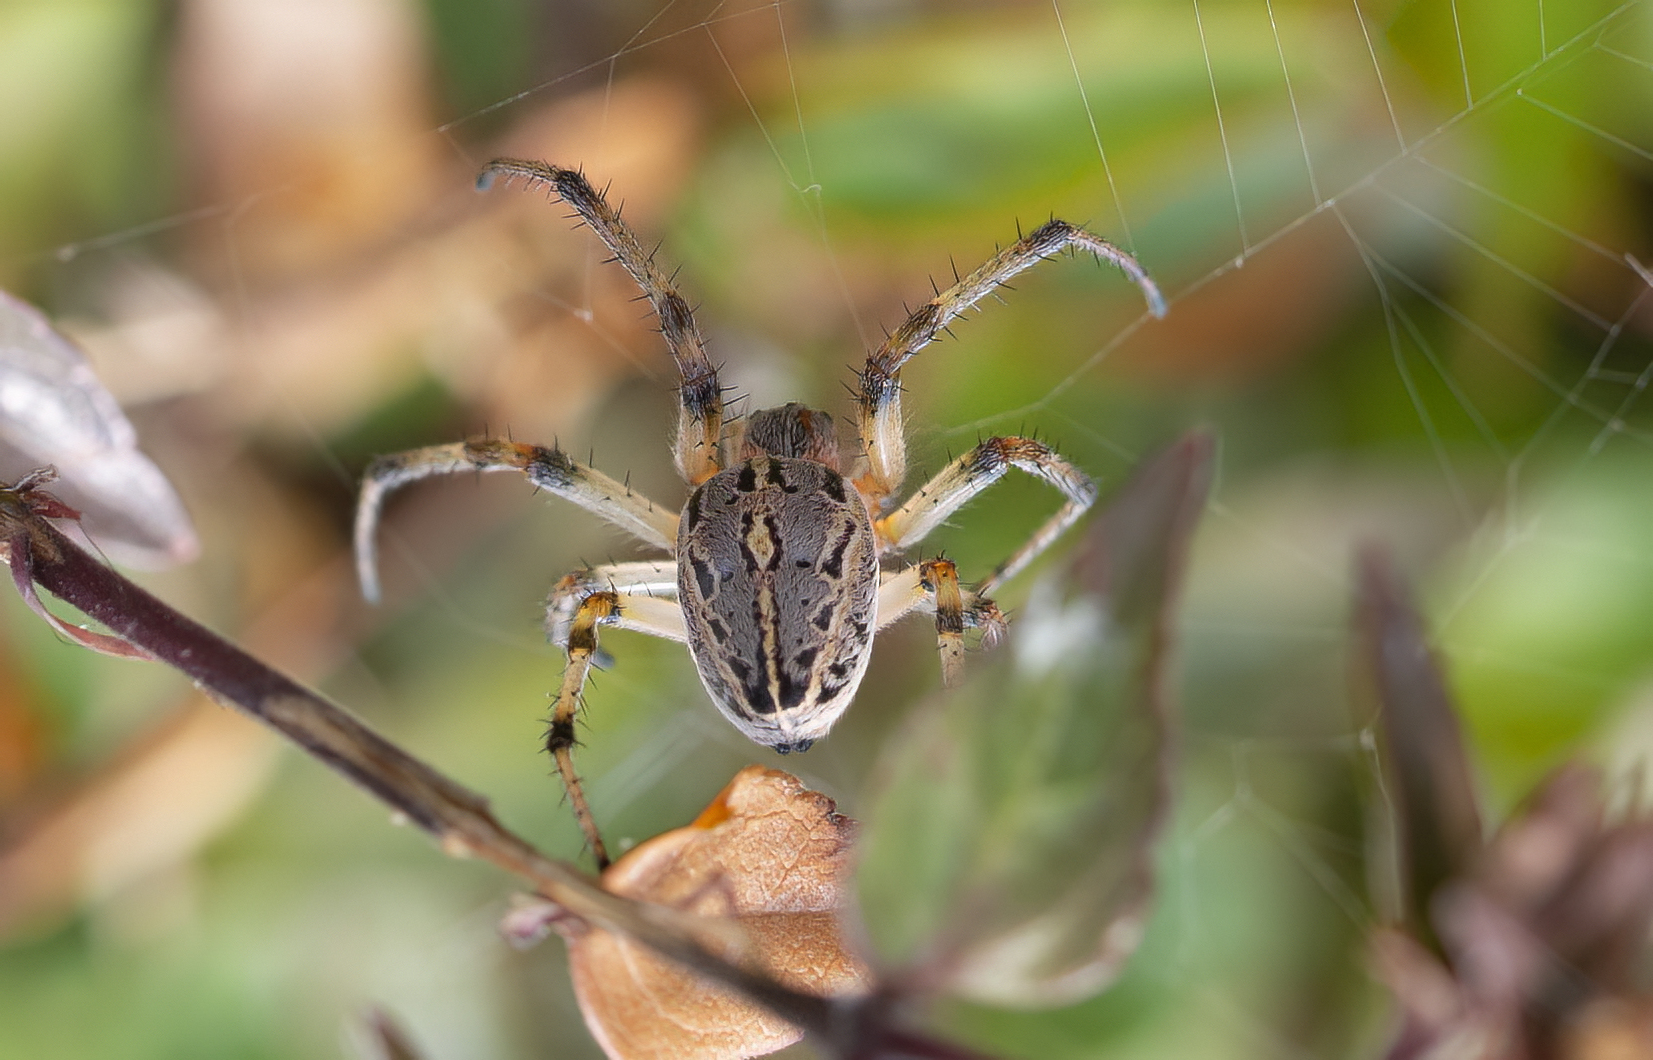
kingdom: Animalia
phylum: Arthropoda
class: Arachnida
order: Araneae
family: Araneidae
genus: Alpaida
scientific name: Alpaida veniliae
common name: Orb weavers
